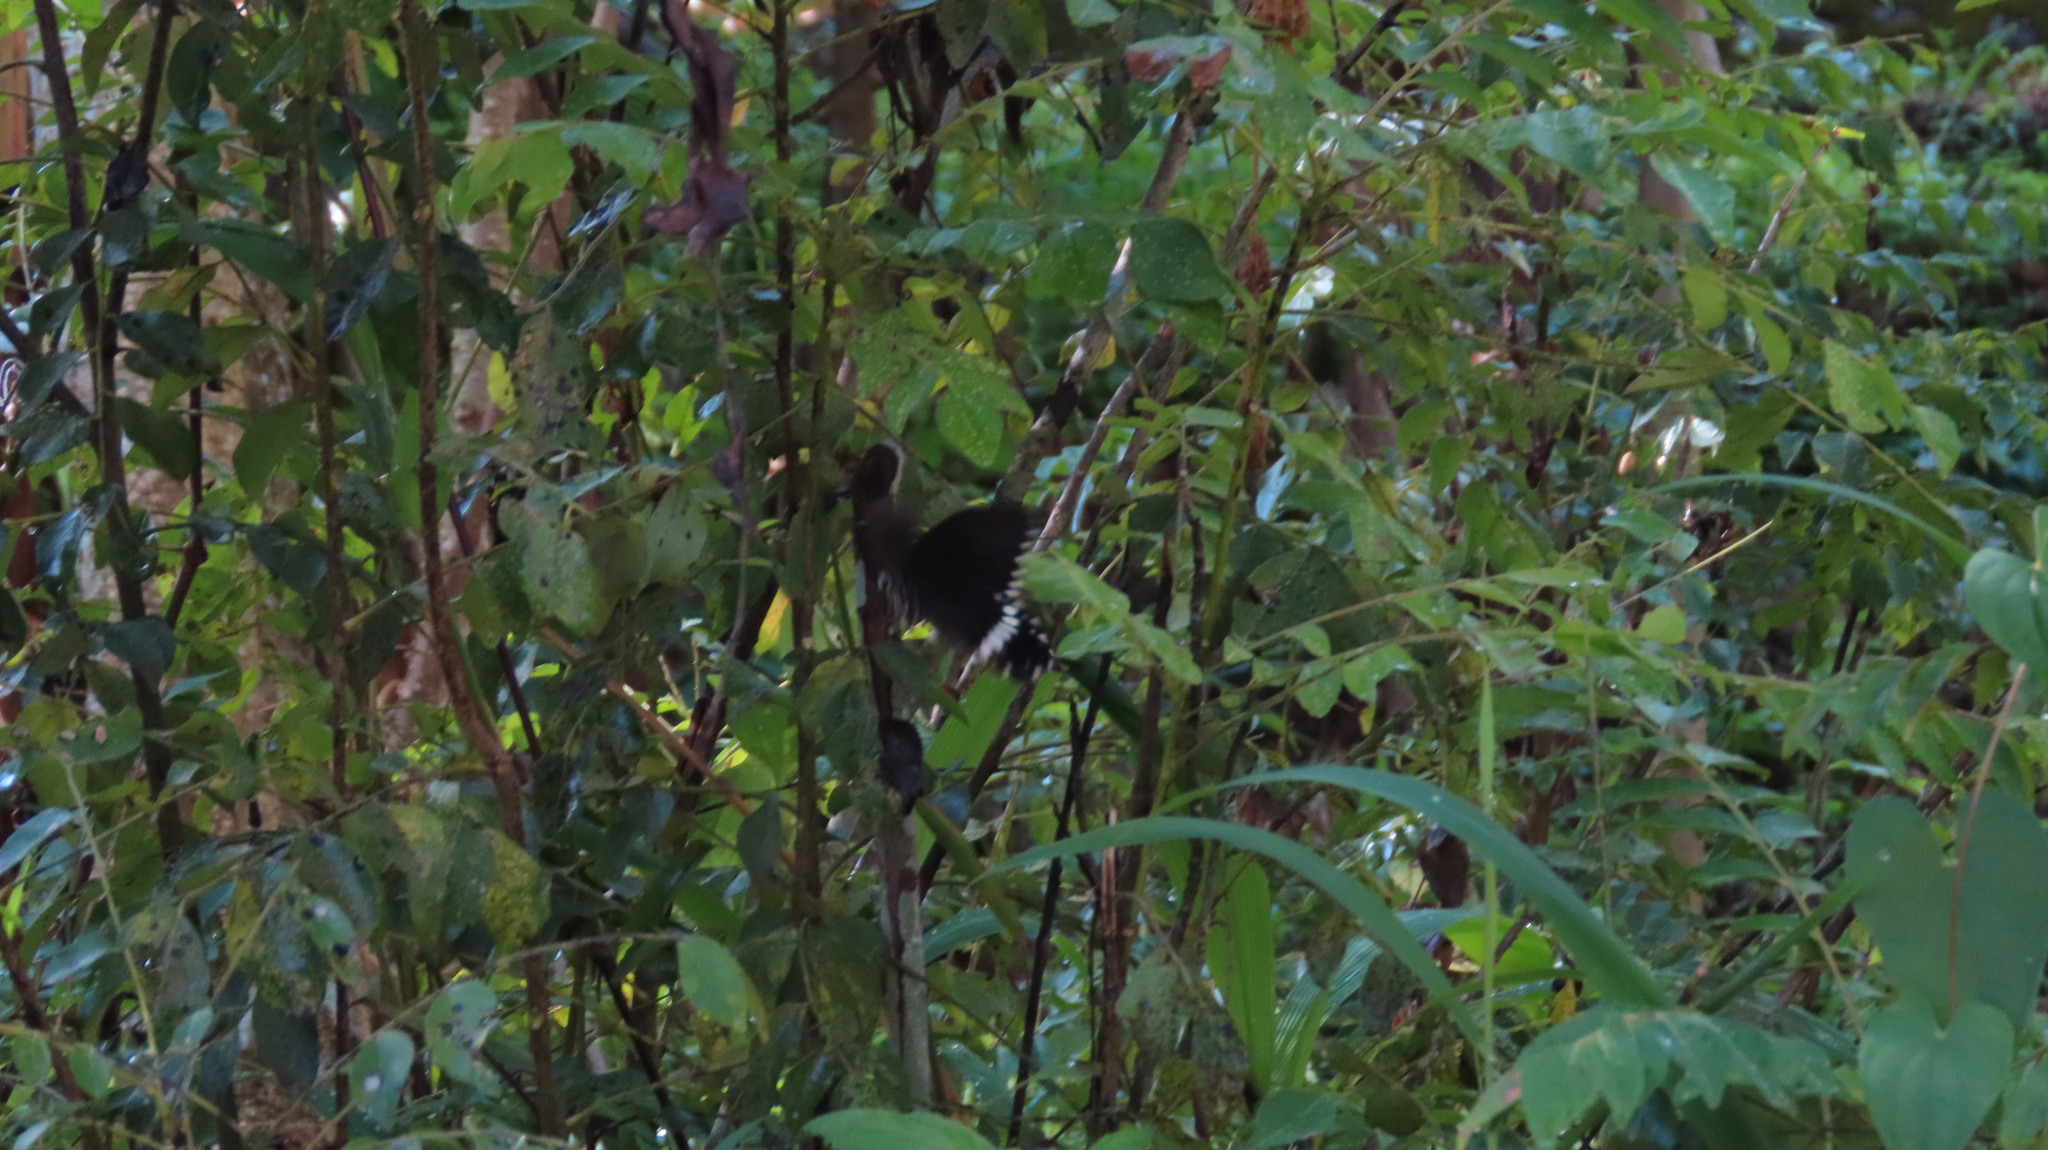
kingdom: Animalia
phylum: Arthropoda
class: Insecta
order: Lepidoptera
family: Papilionidae
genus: Papilio
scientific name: Papilio polytes
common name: Common mormon
